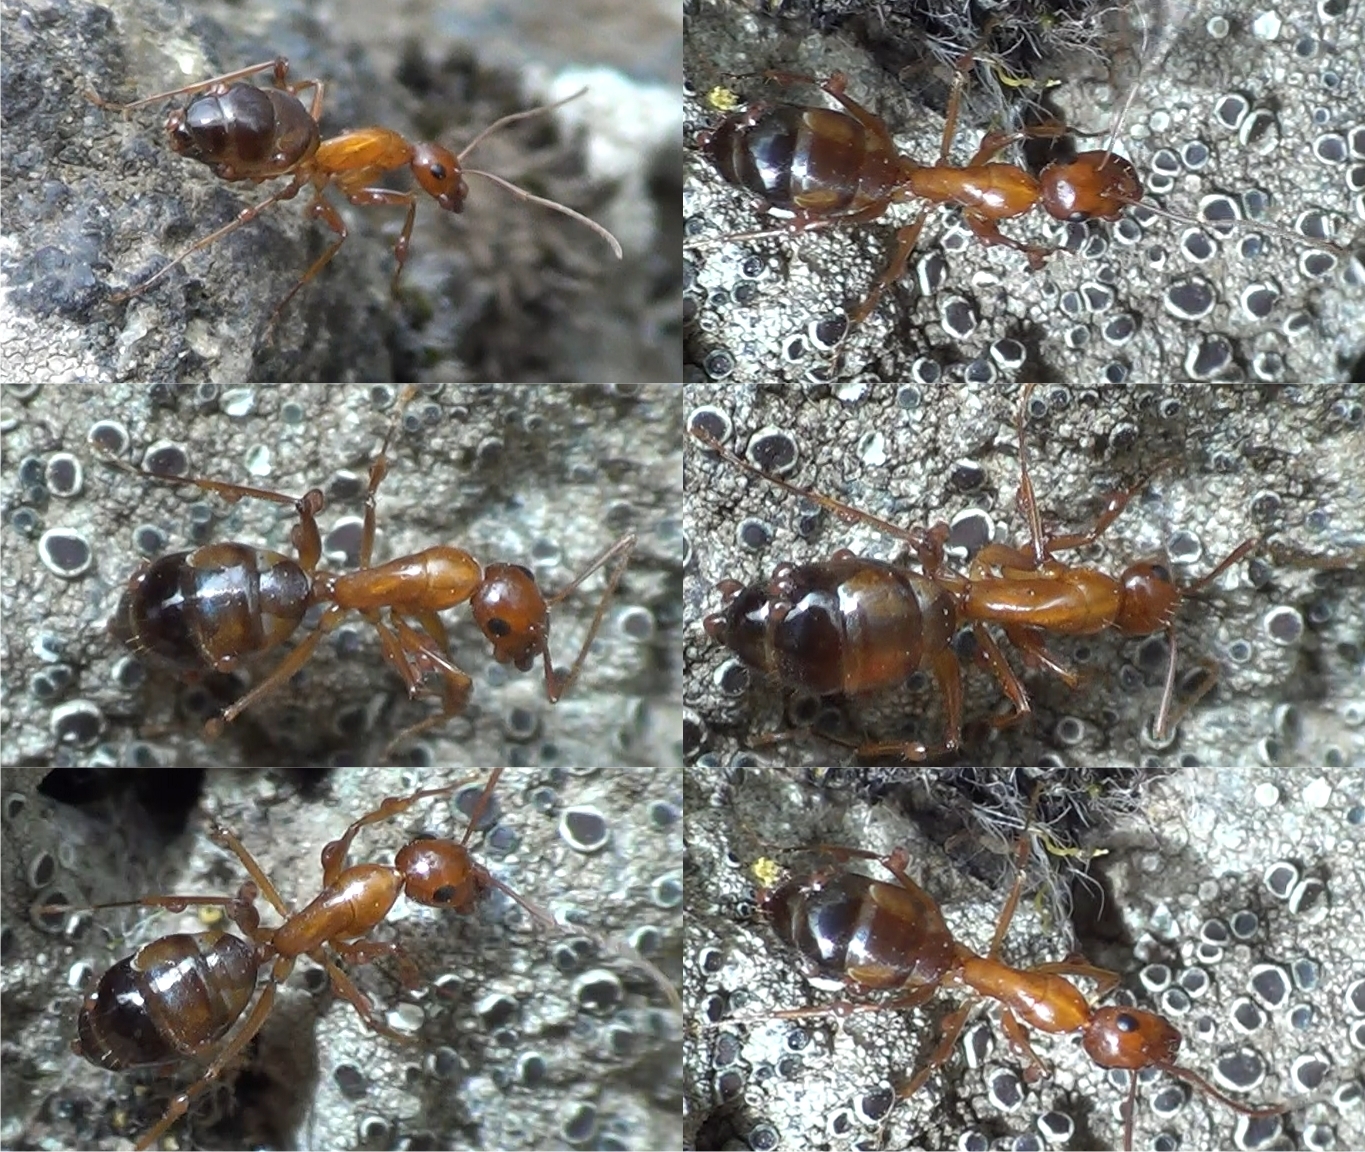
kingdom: Animalia
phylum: Arthropoda
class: Insecta
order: Hymenoptera
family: Formicidae
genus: Camponotus
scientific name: Camponotus nylanderi
